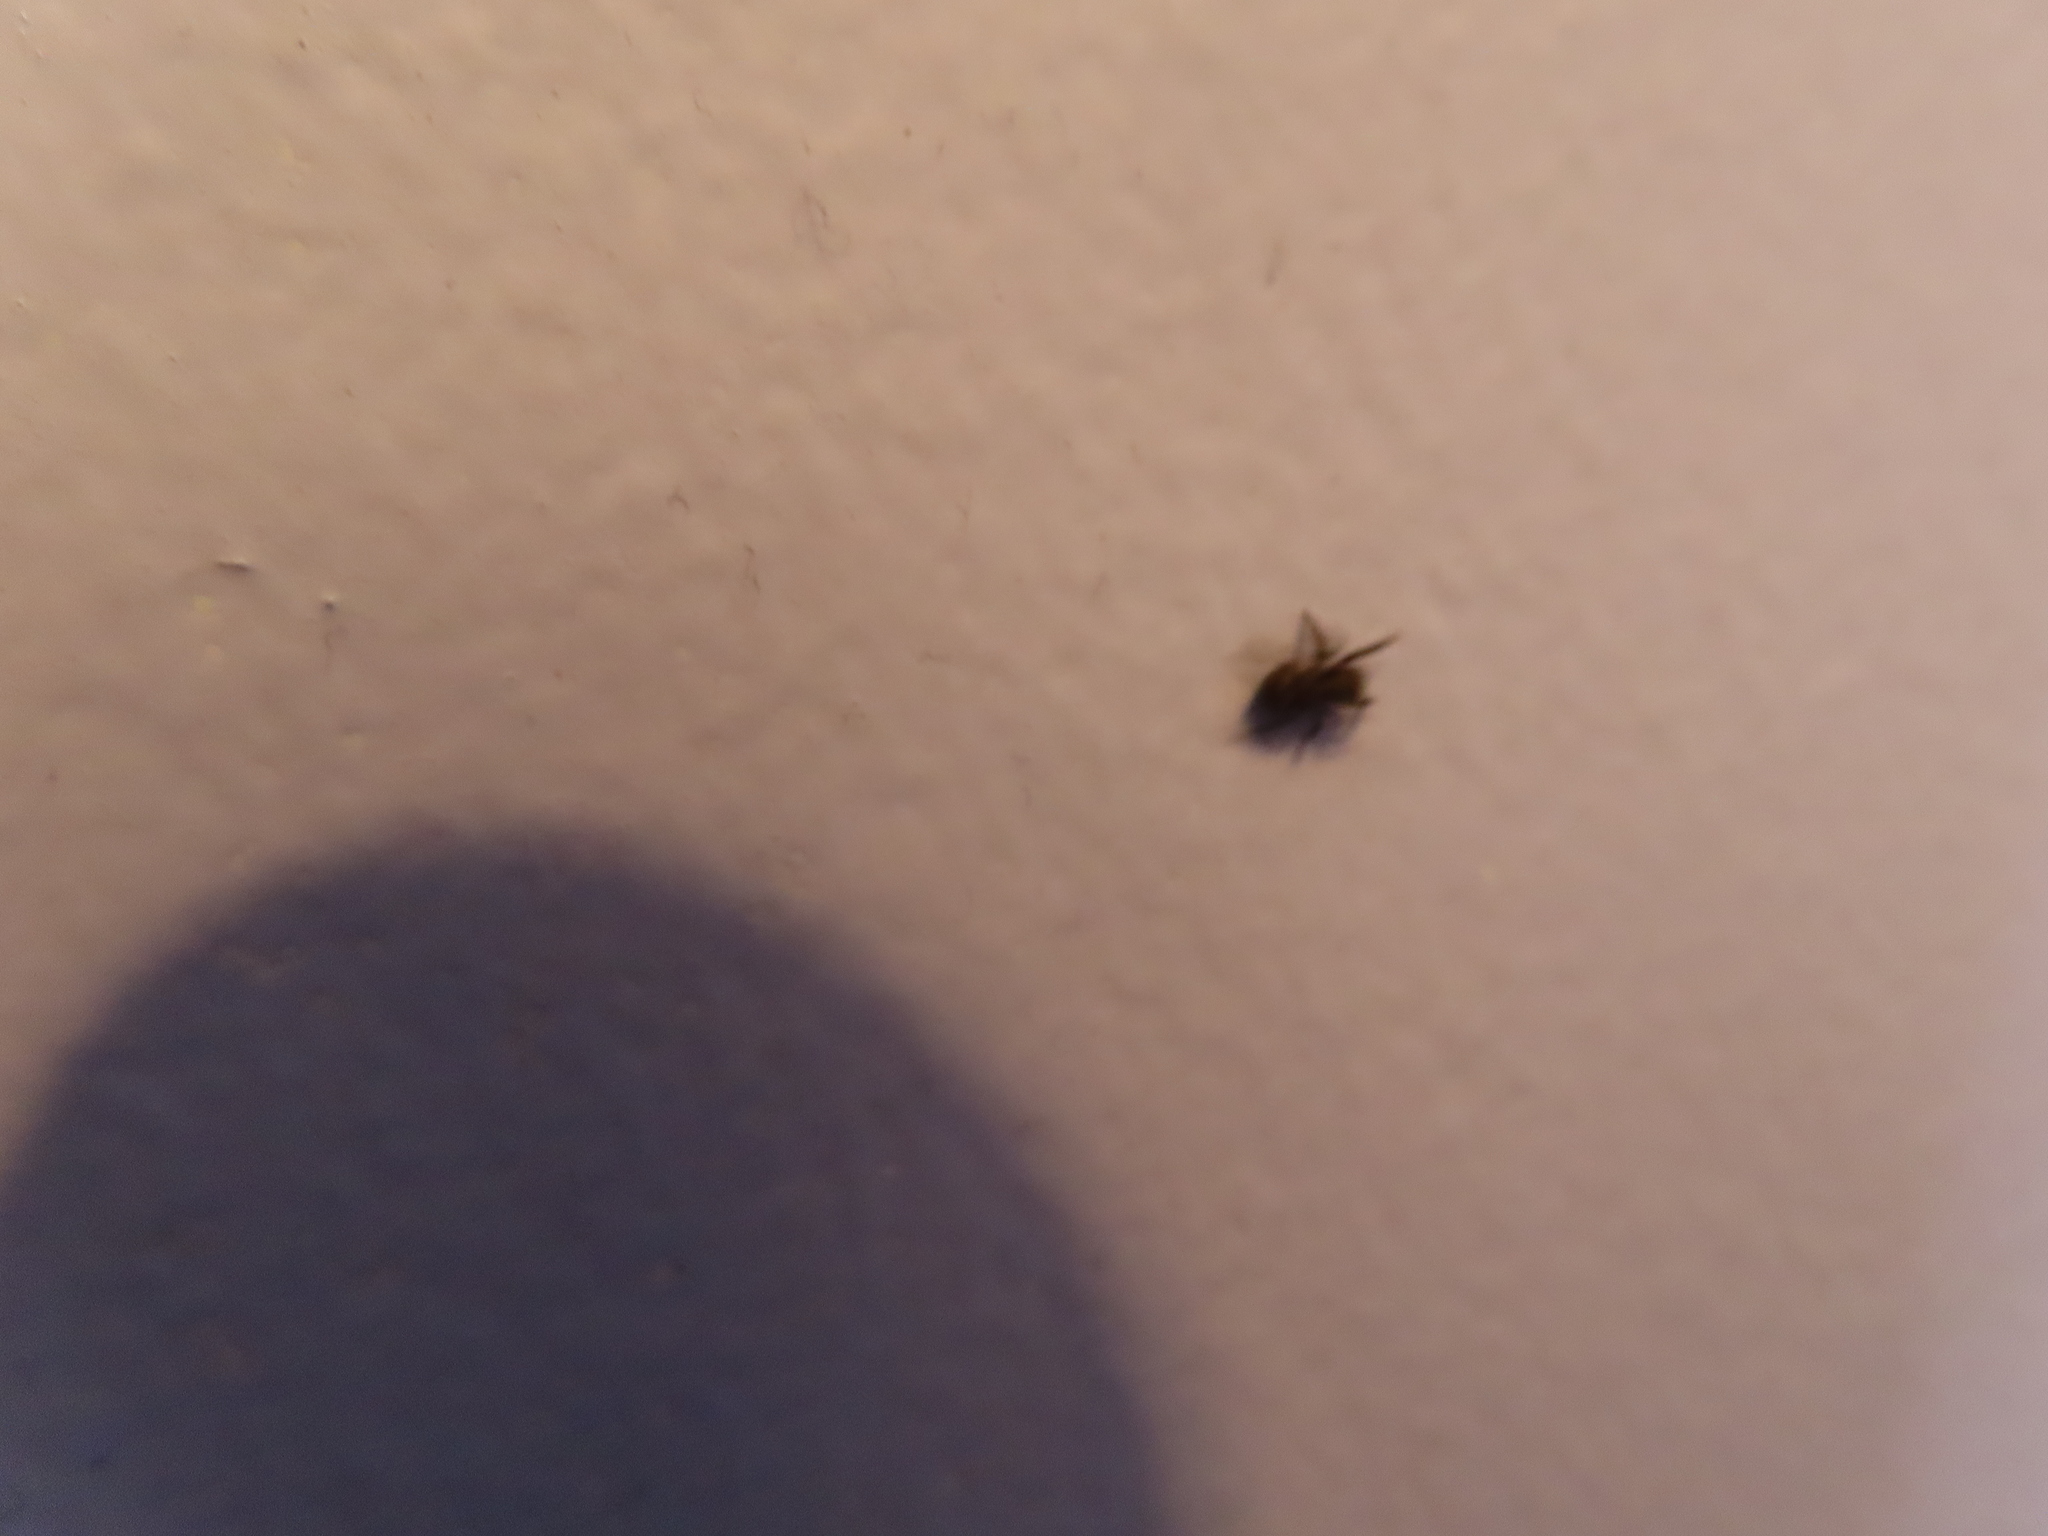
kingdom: Animalia
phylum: Arthropoda
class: Arachnida
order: Araneae
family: Salticidae
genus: Pseudeuophrys
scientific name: Pseudeuophrys erratica
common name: Jumping spider
